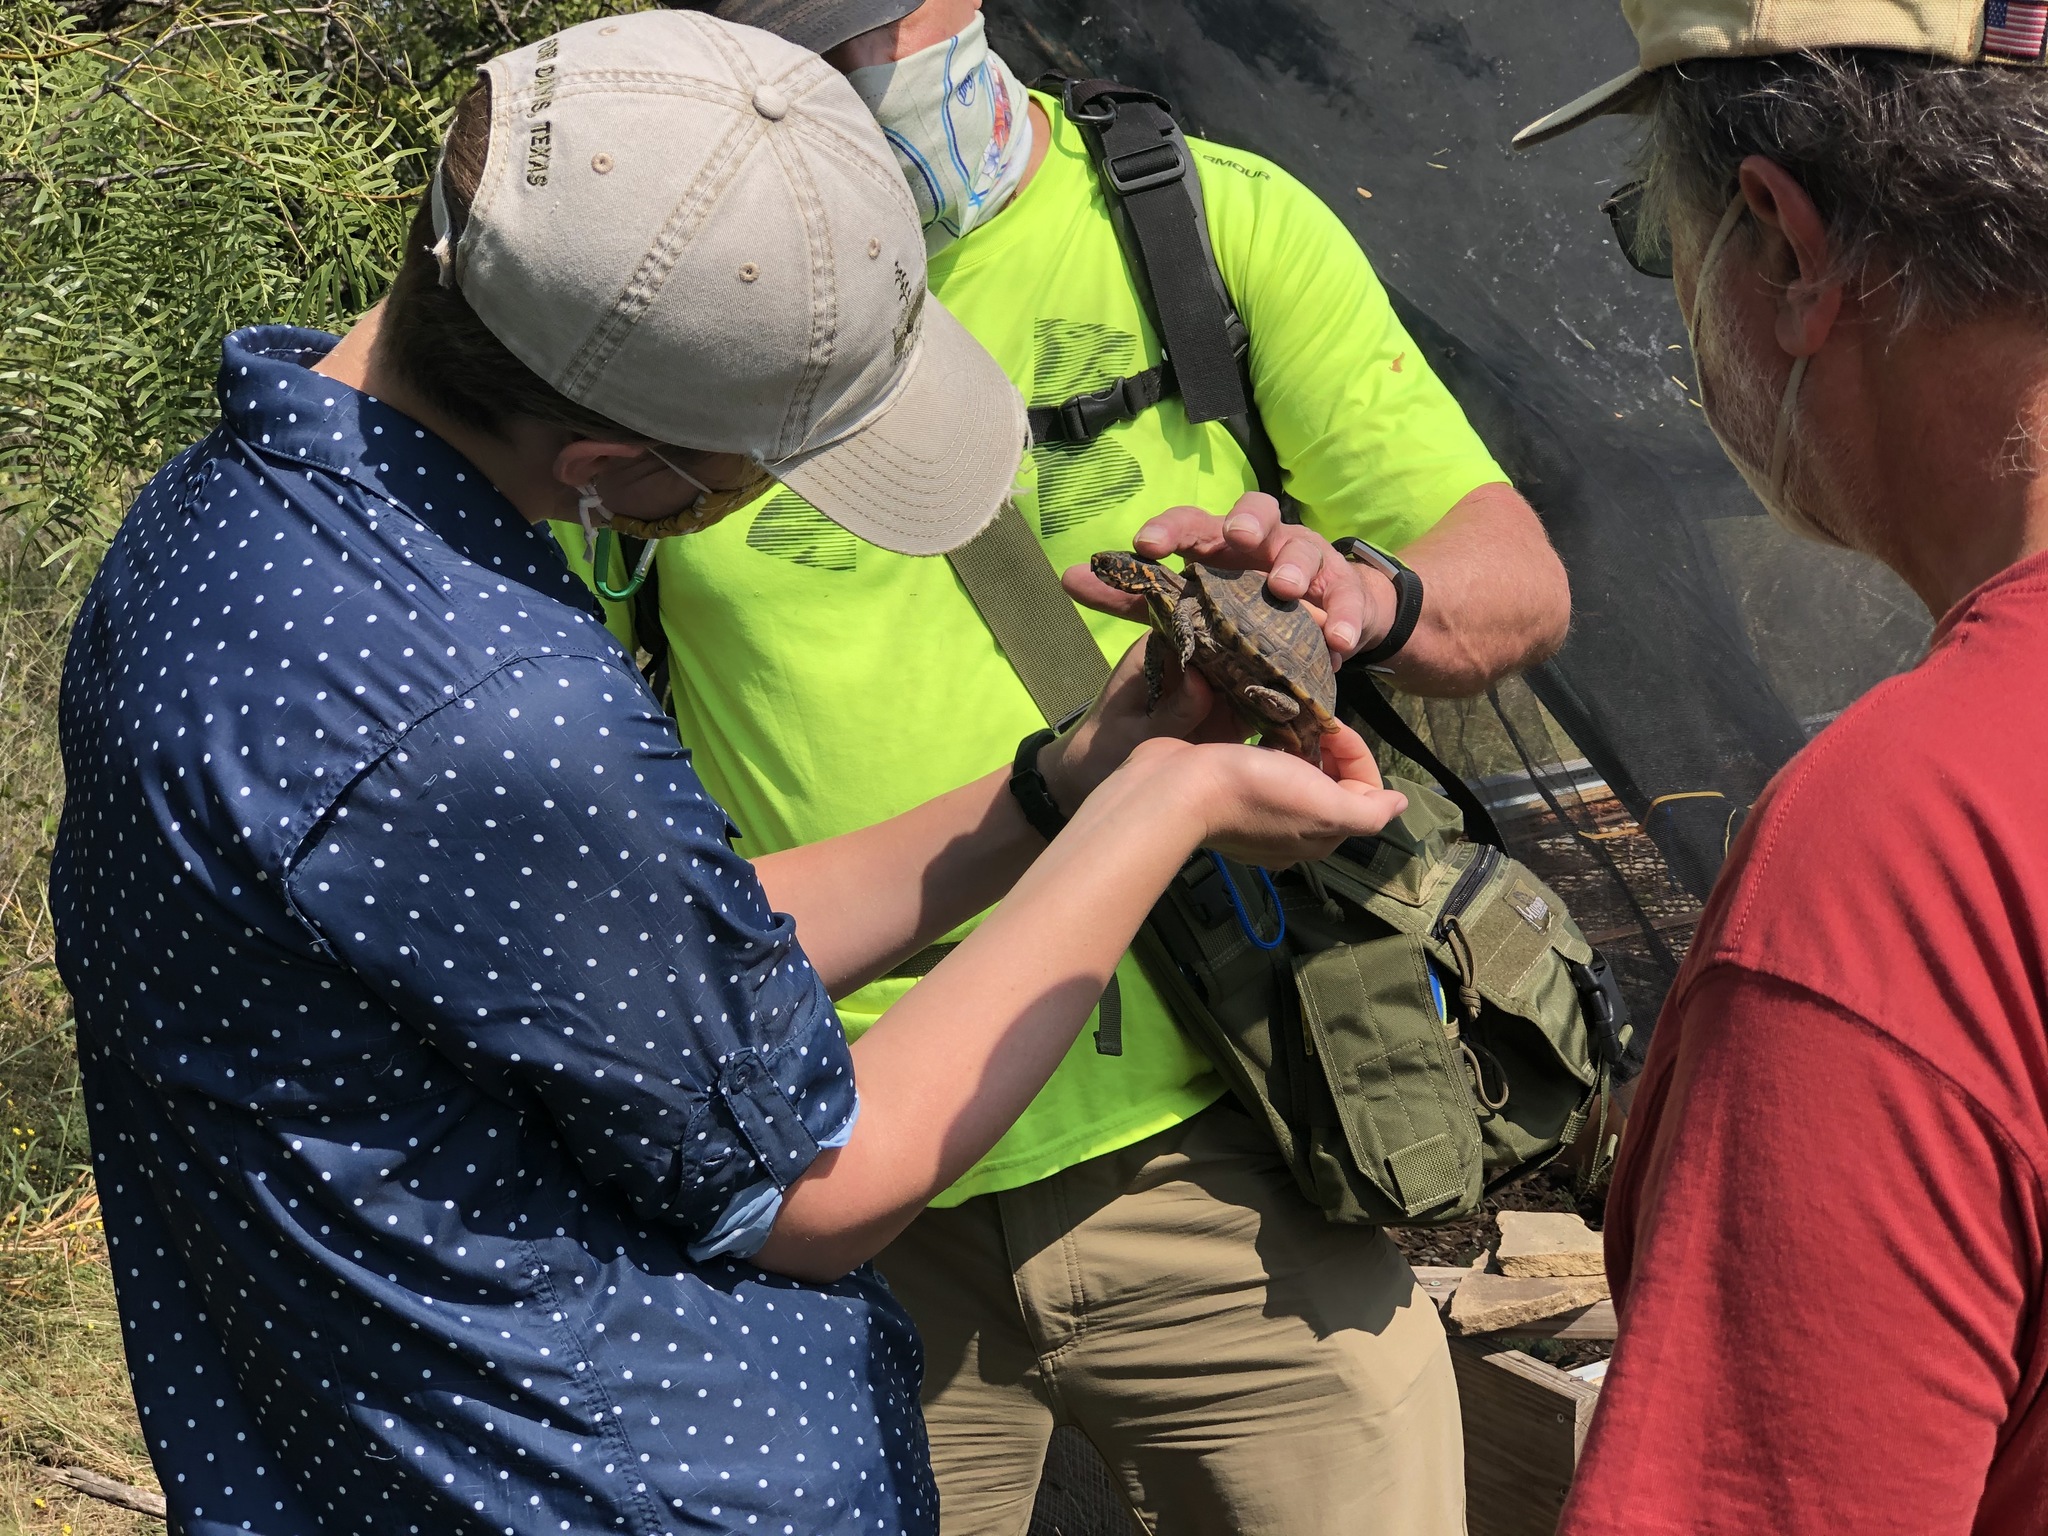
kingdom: Animalia
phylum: Chordata
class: Testudines
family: Emydidae
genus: Terrapene
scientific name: Terrapene carolina
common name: Common box turtle
